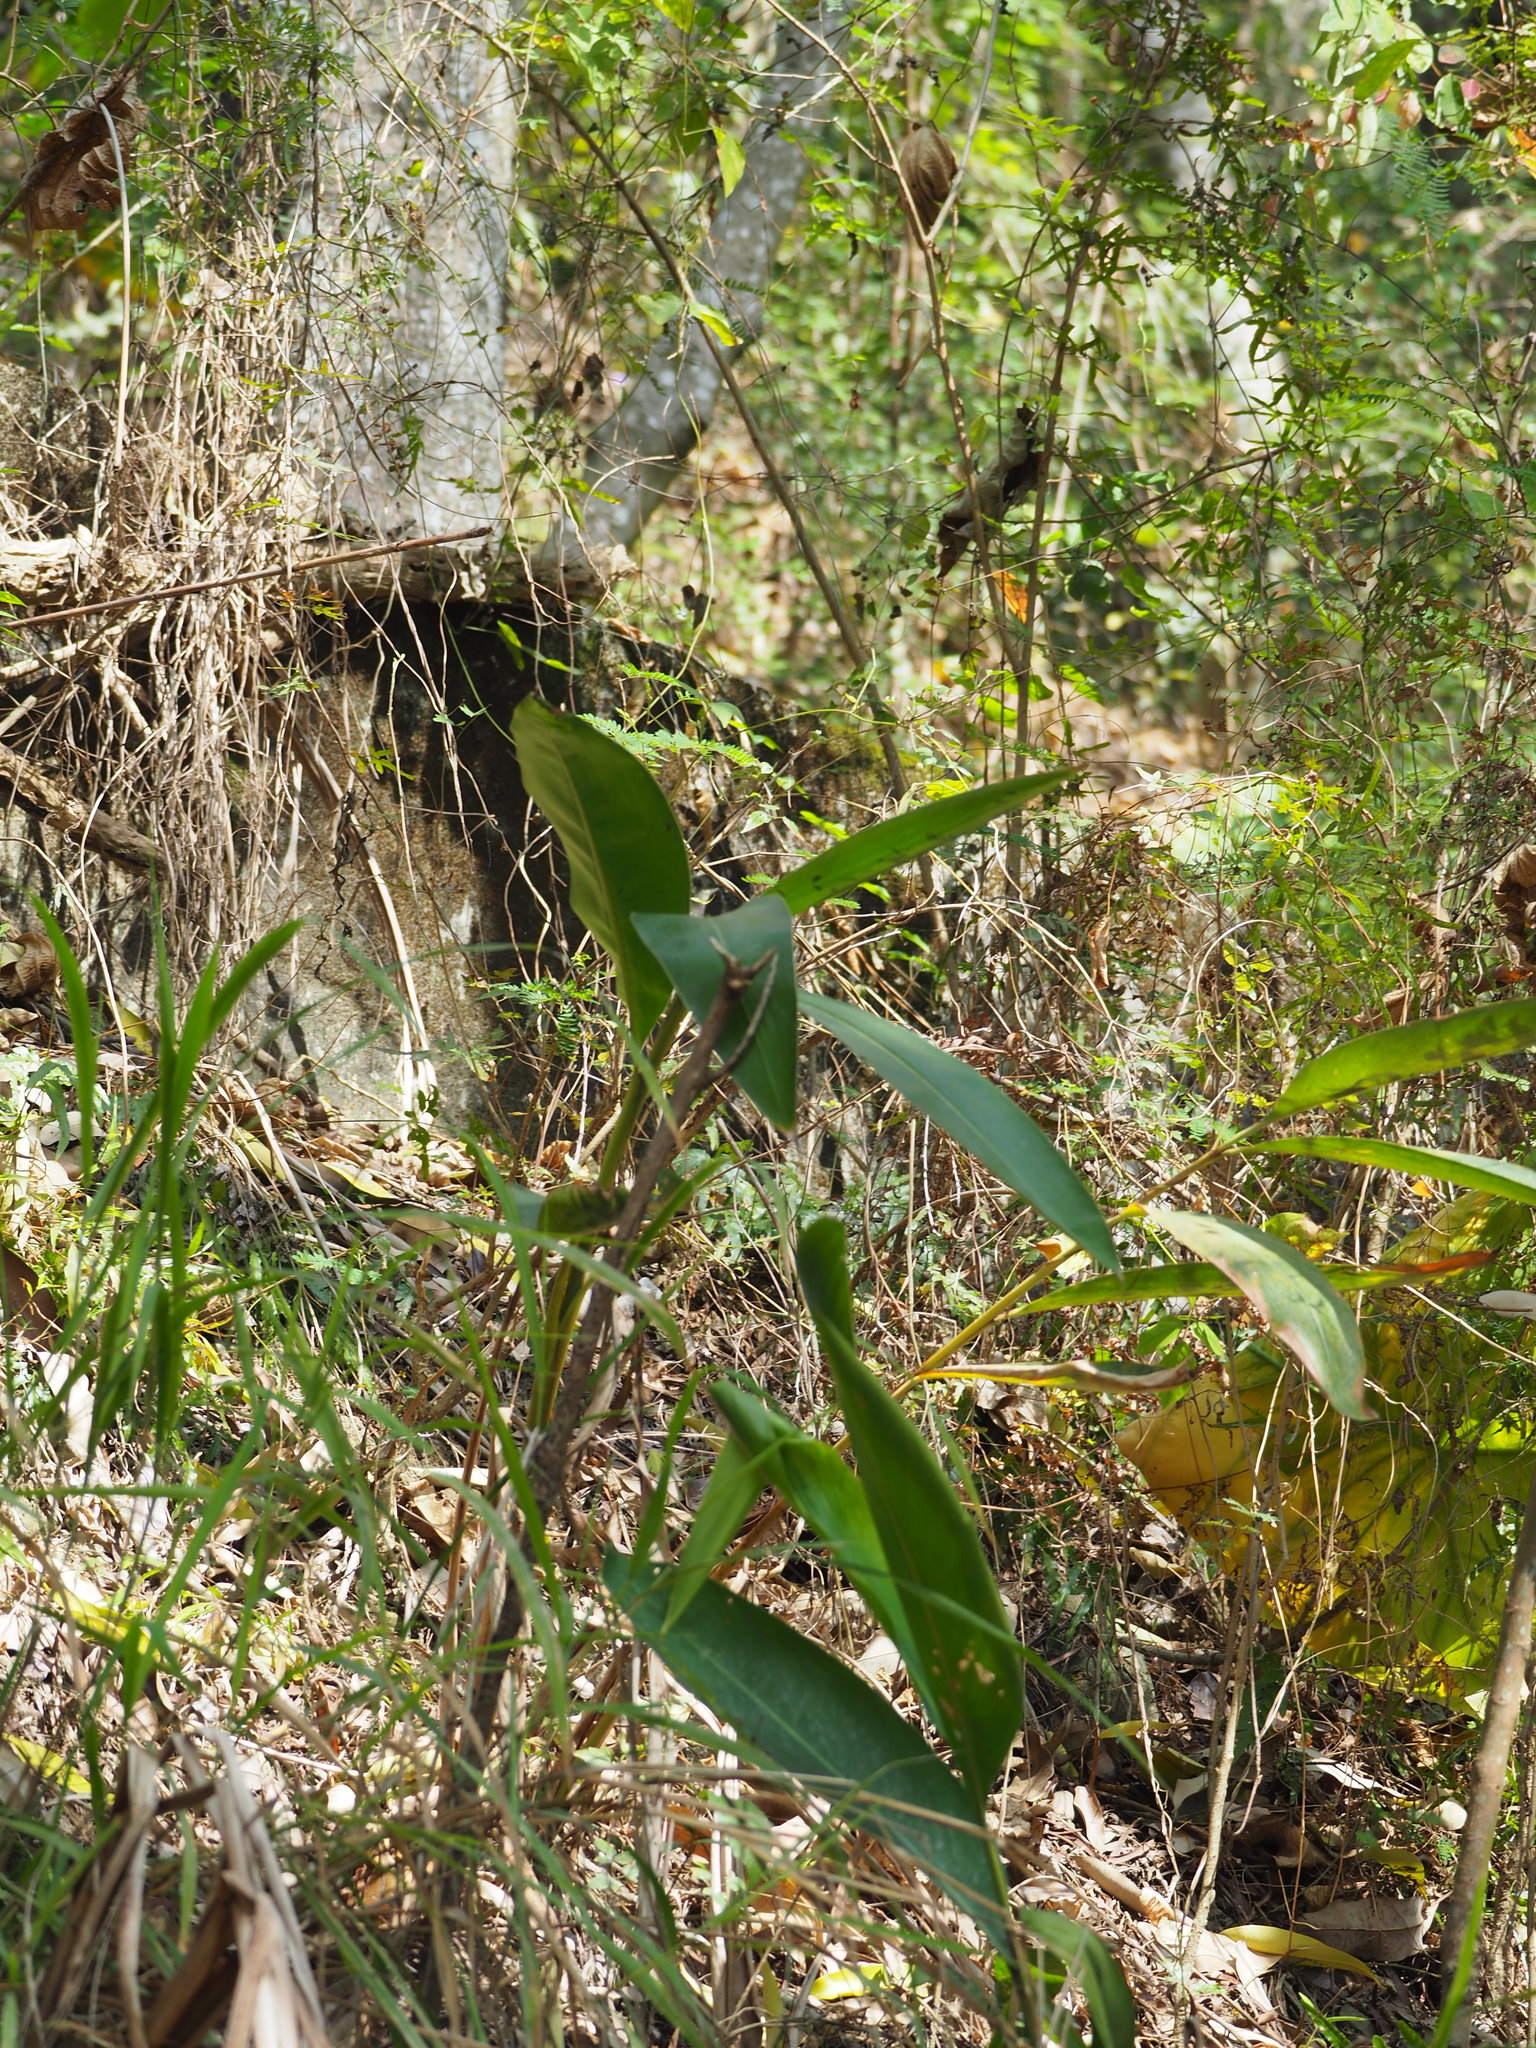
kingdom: Plantae
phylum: Tracheophyta
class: Liliopsida
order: Zingiberales
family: Zingiberaceae
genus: Alpinia
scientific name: Alpinia zerumbet
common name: Shellplant
